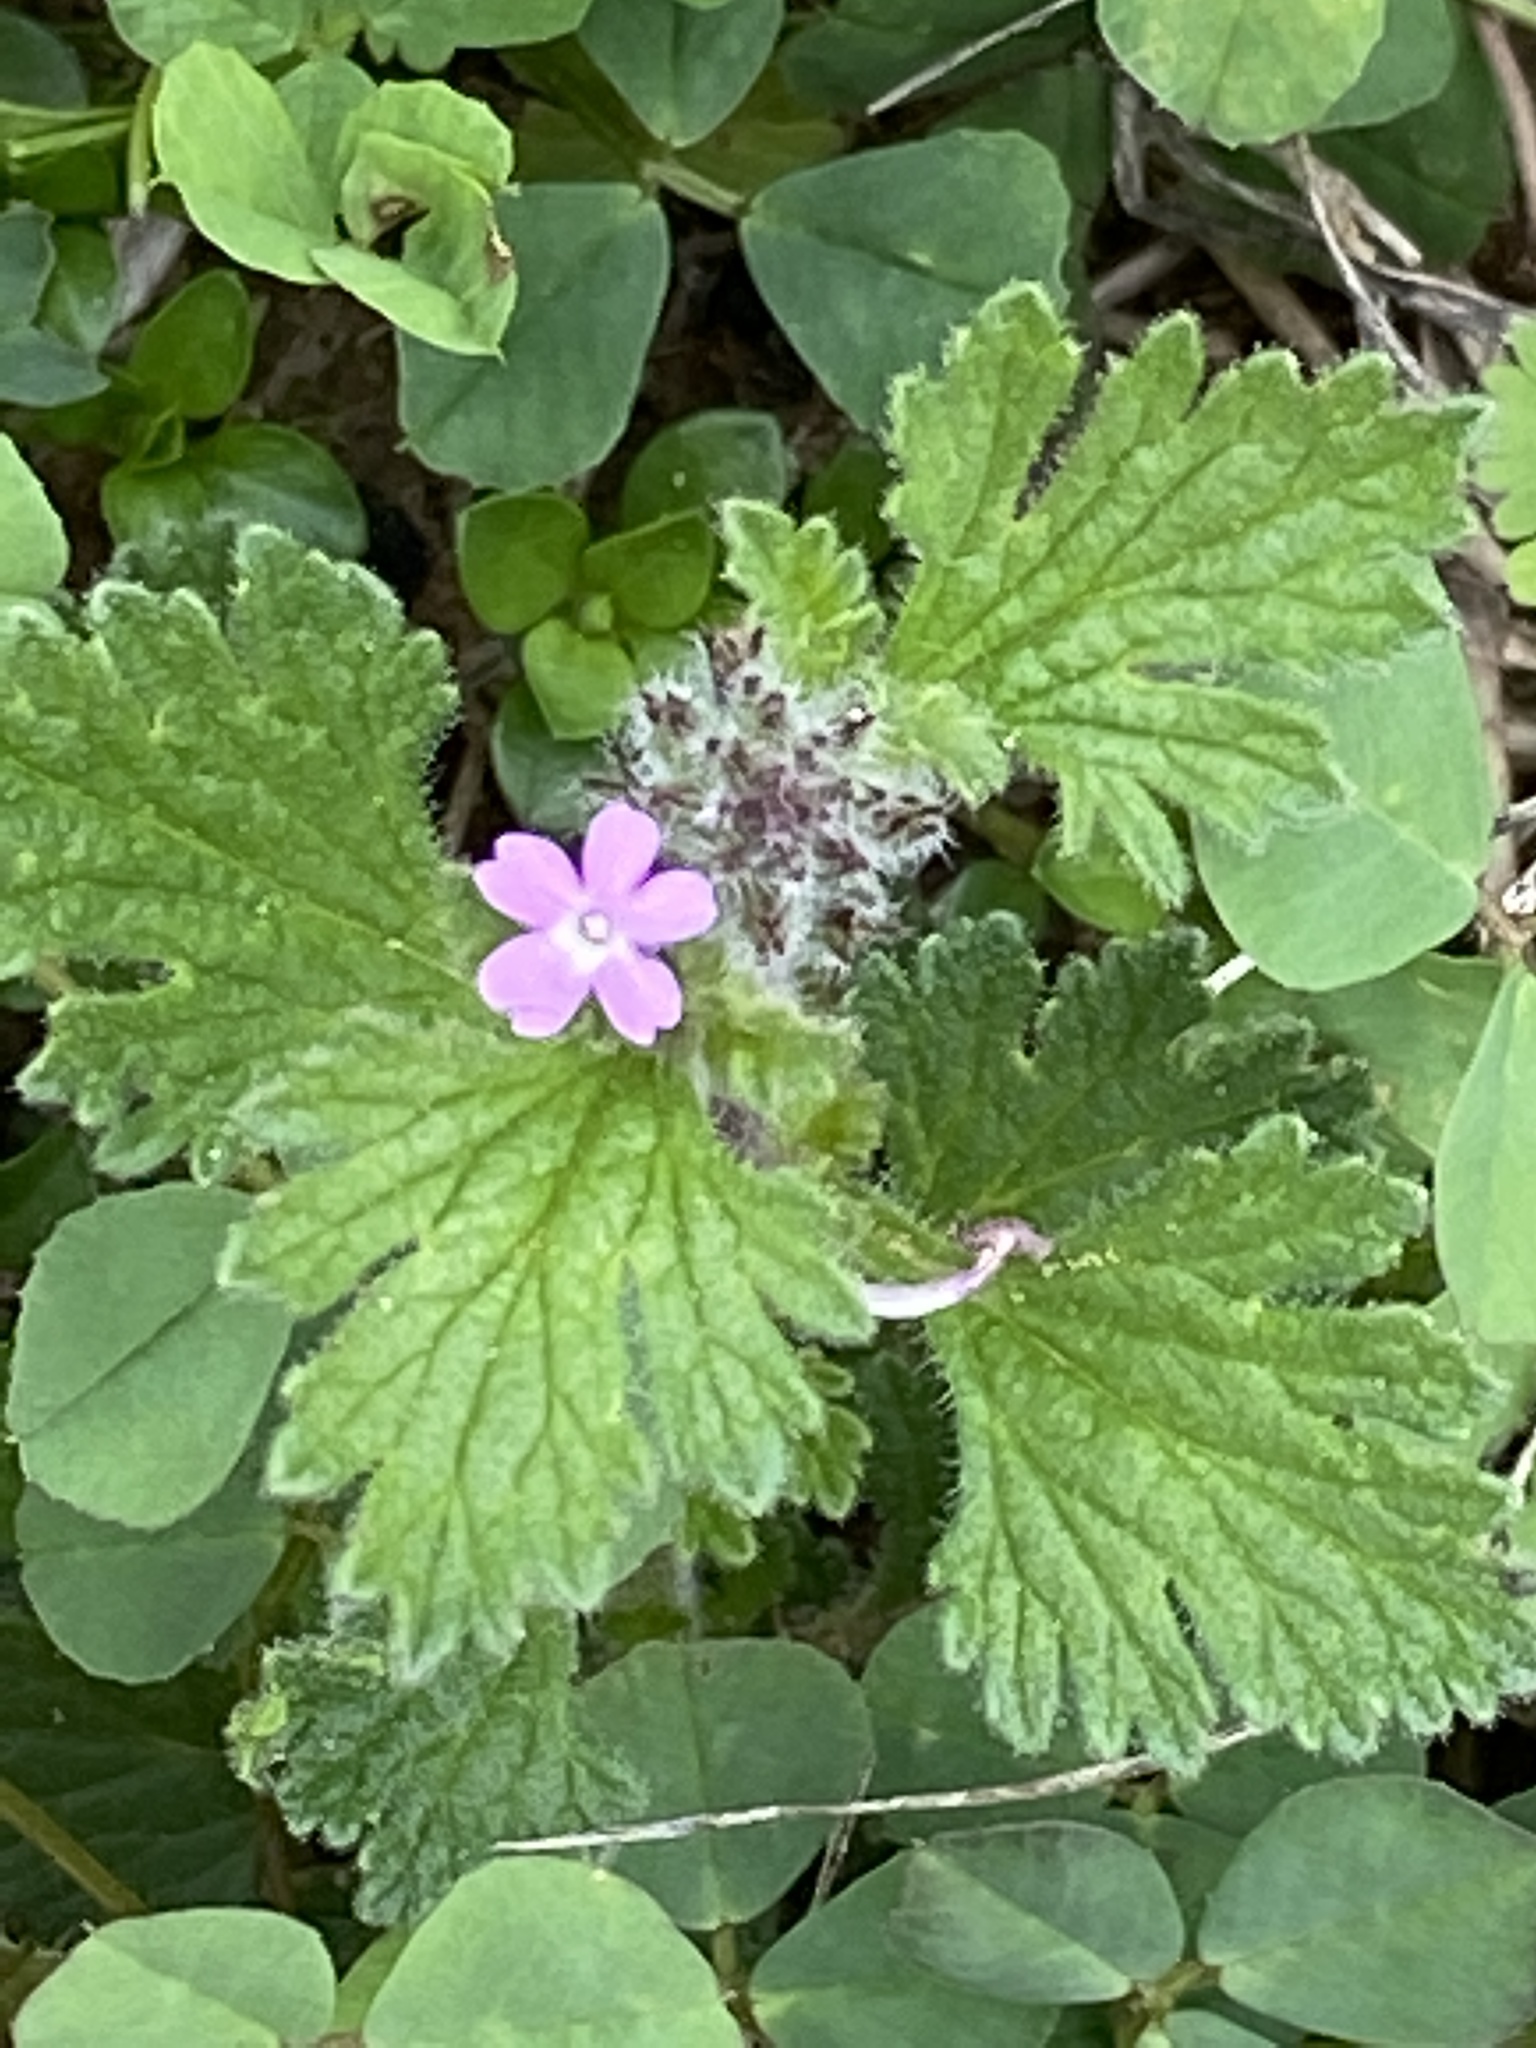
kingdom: Plantae
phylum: Tracheophyta
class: Magnoliopsida
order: Lamiales
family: Verbenaceae
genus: Verbena
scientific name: Verbena pumila
